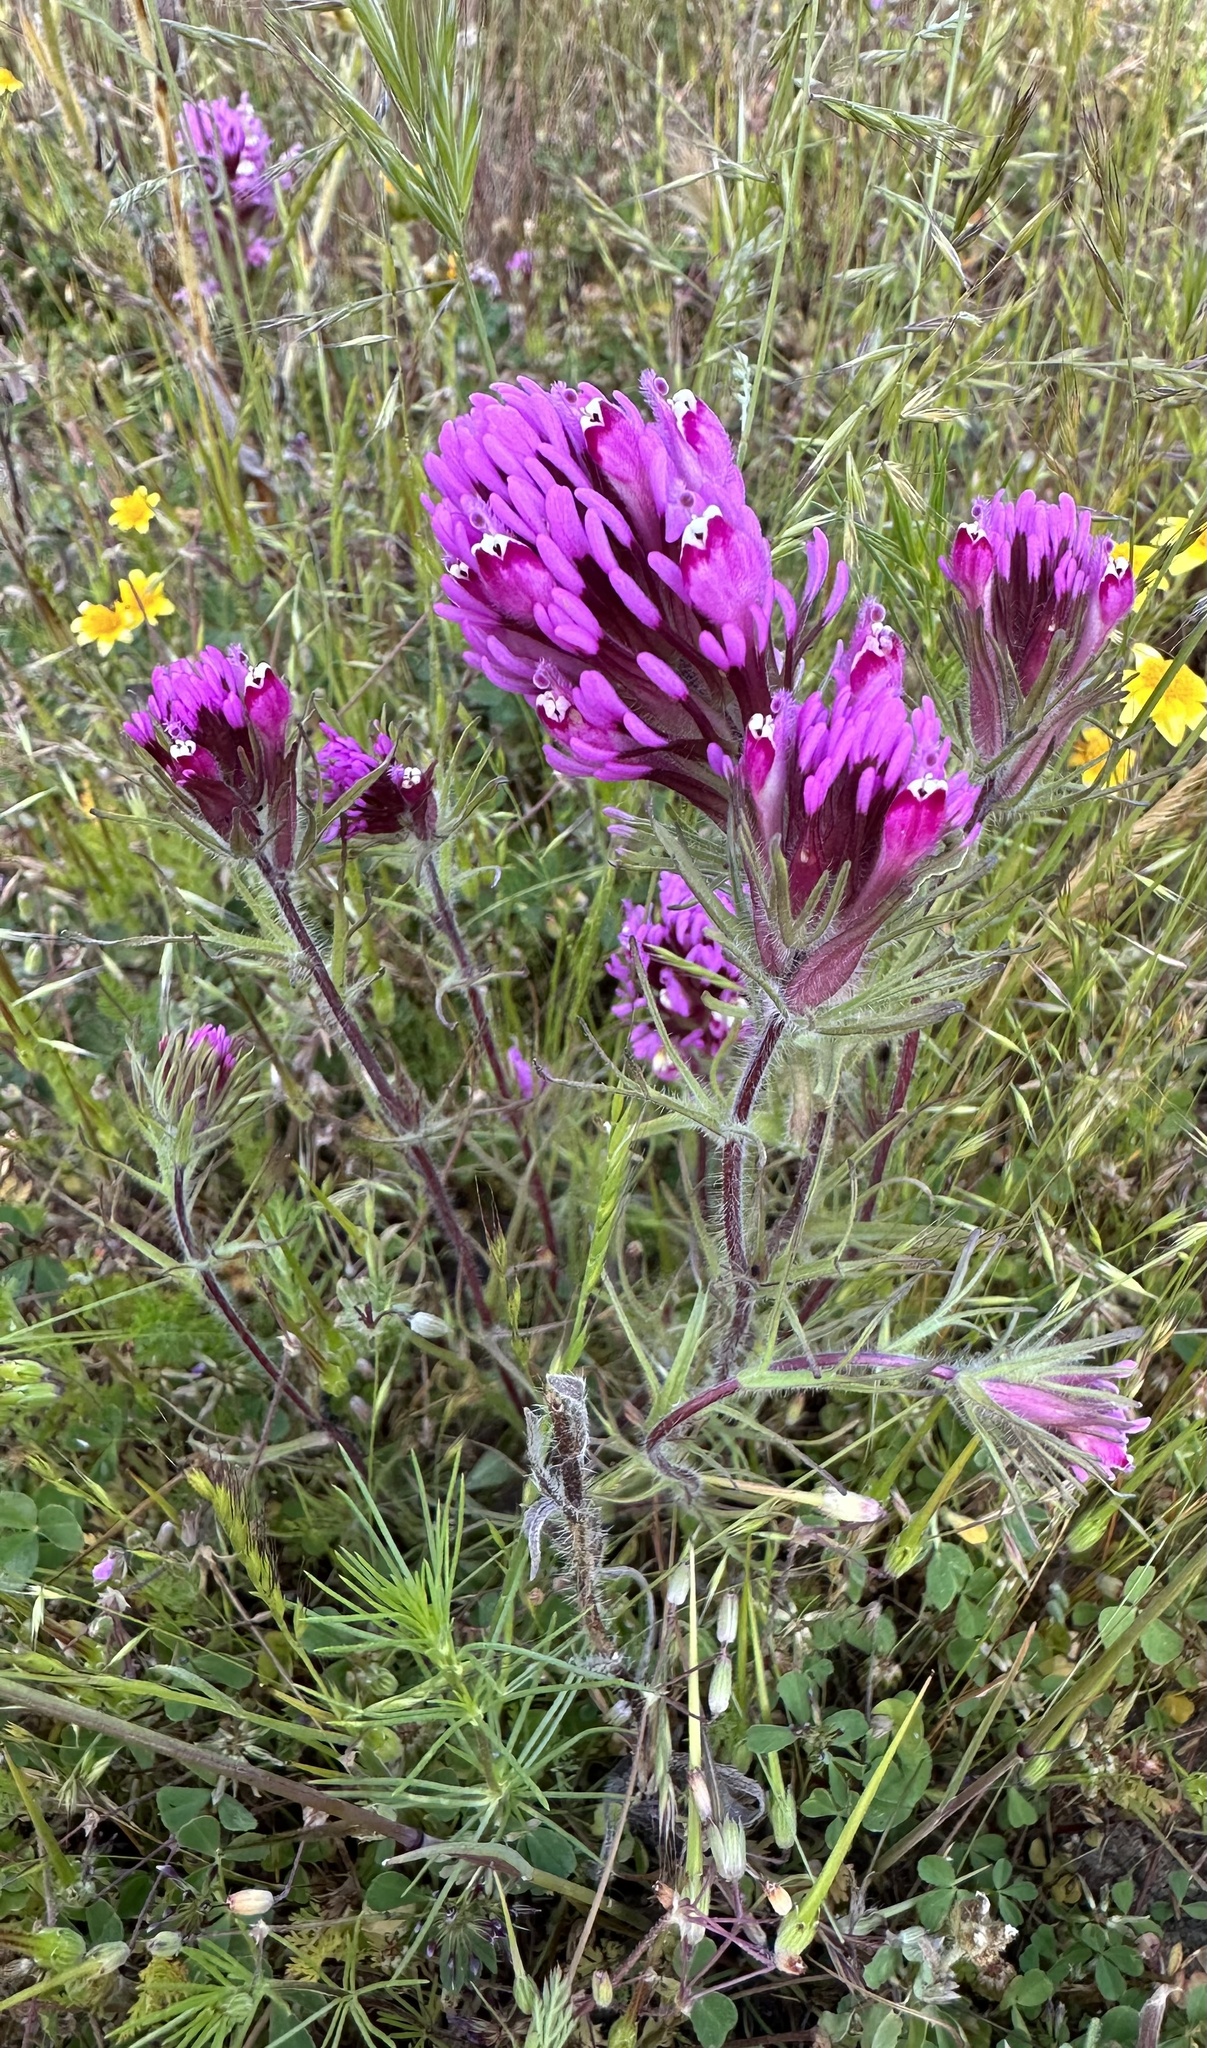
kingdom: Plantae
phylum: Tracheophyta
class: Magnoliopsida
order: Lamiales
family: Orobanchaceae
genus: Castilleja
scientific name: Castilleja exserta
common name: Purple owl-clover
